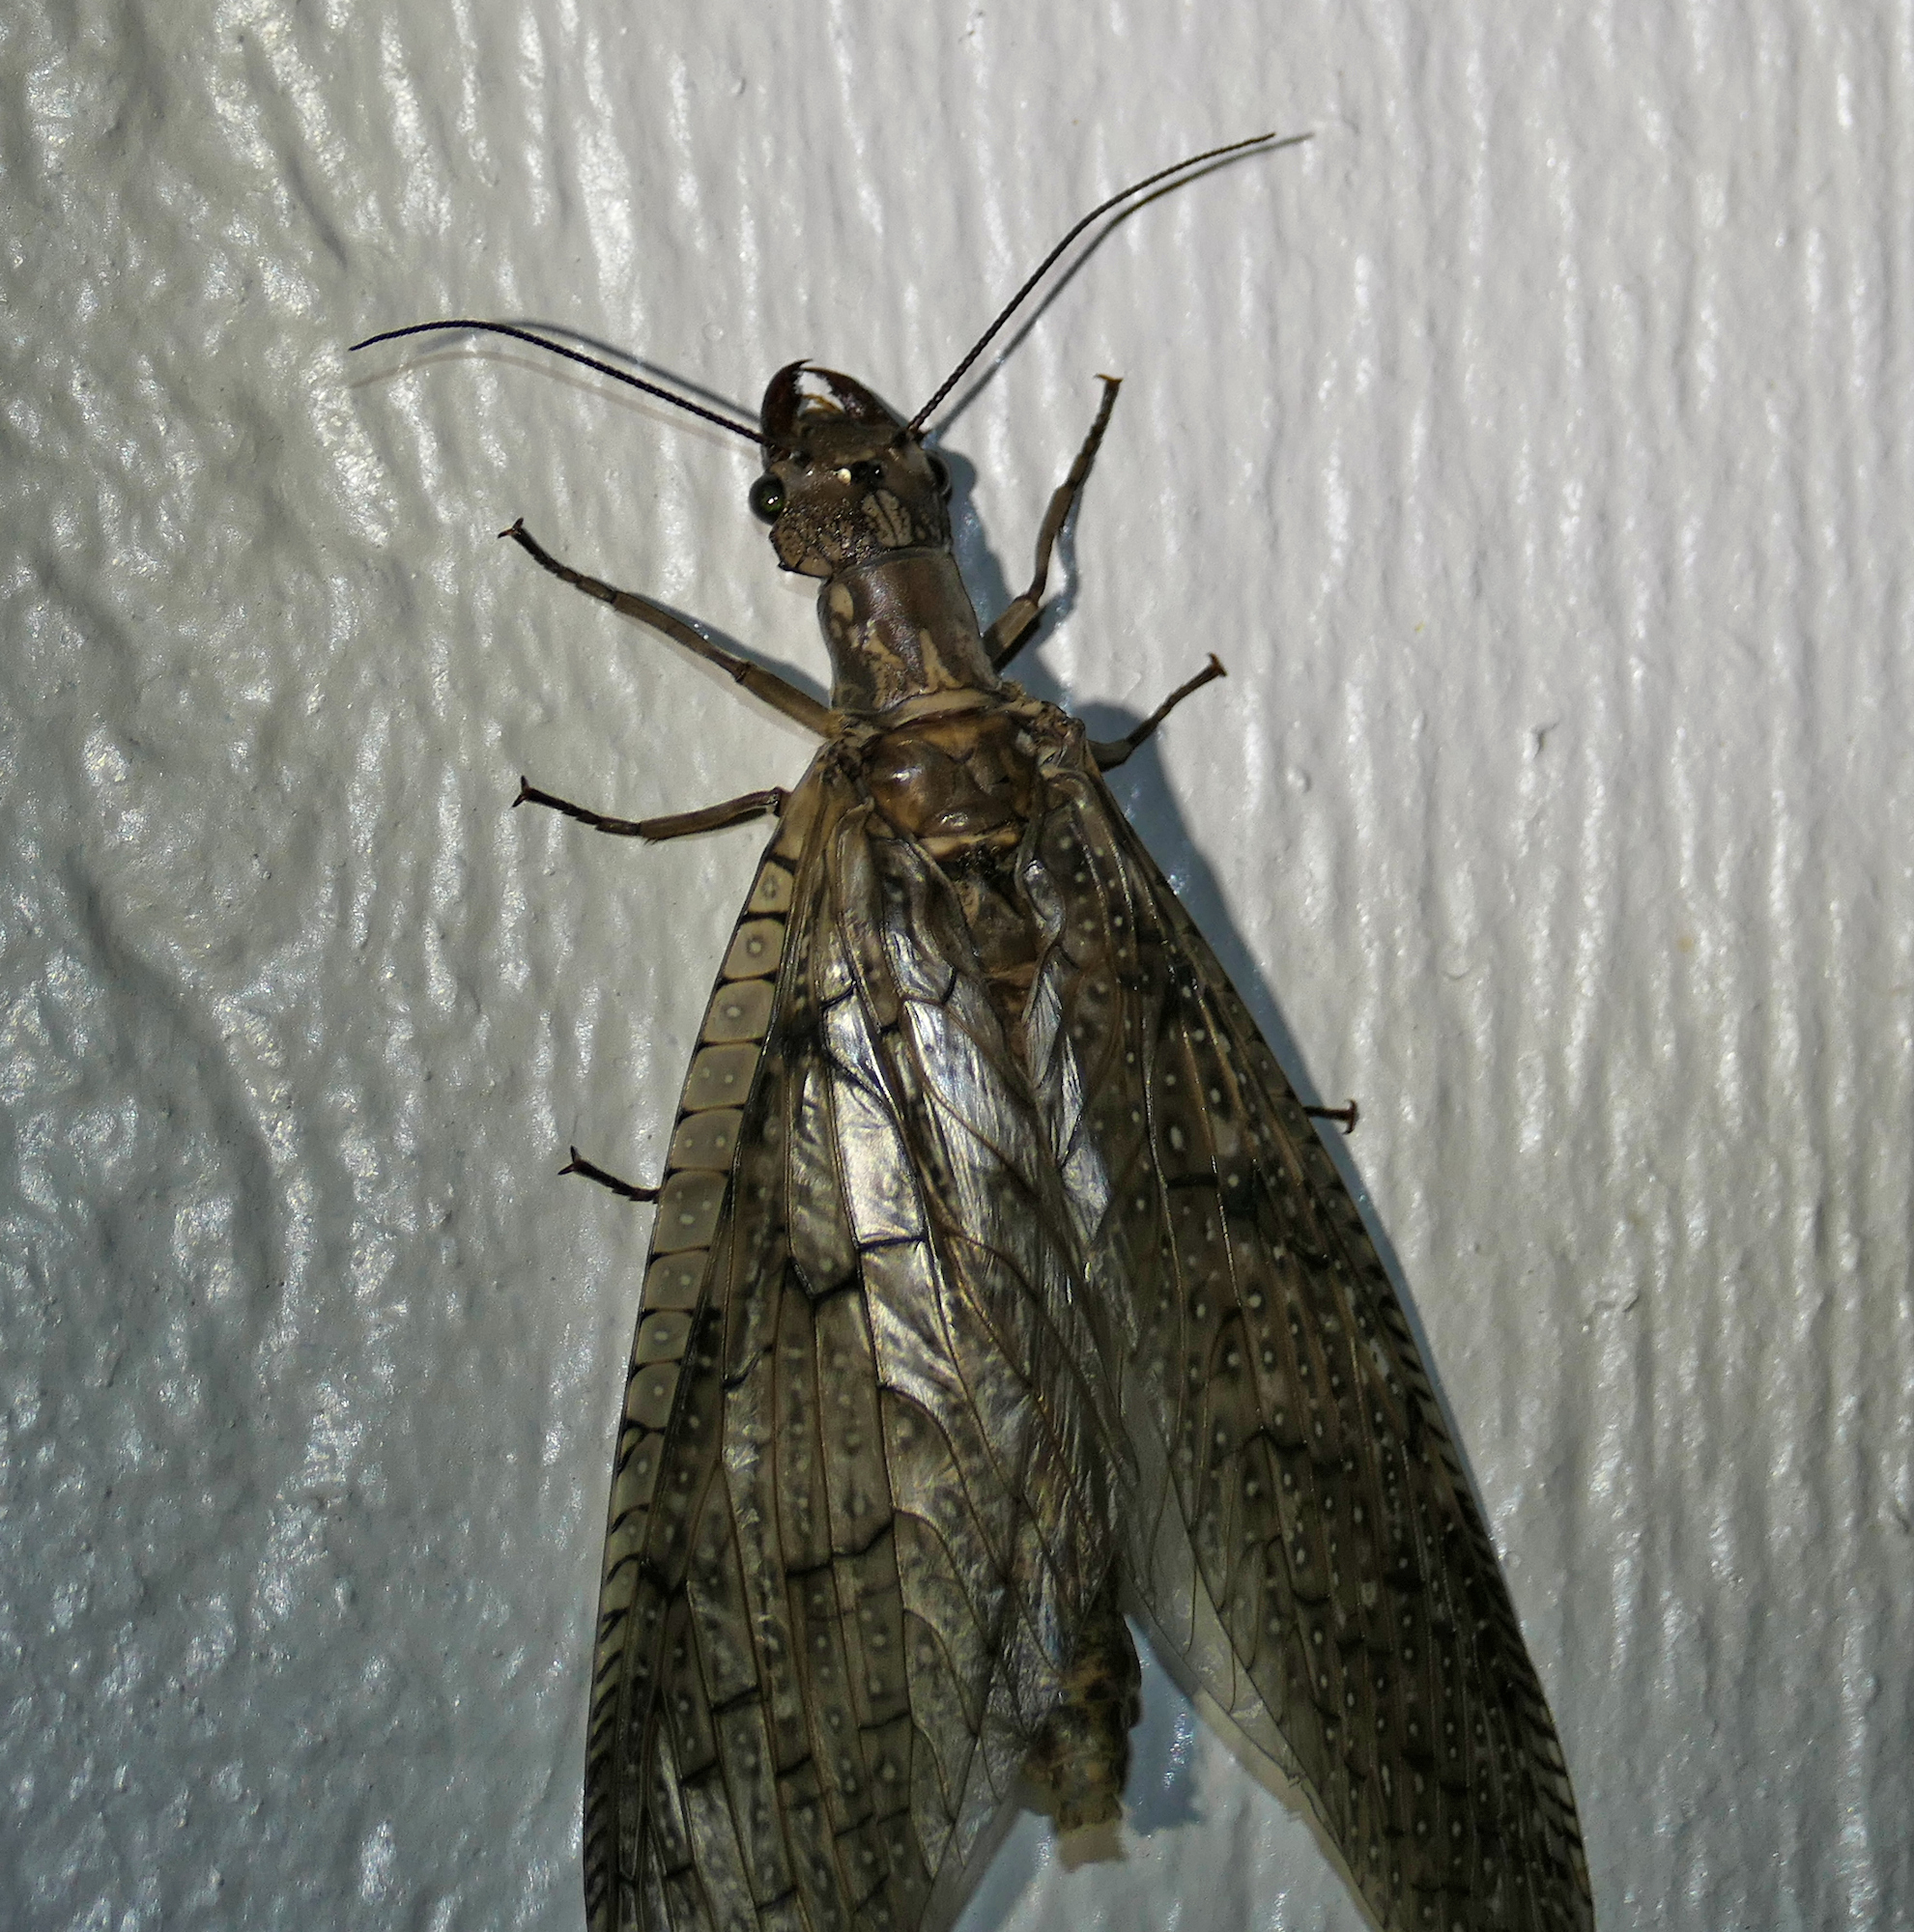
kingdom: Animalia
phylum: Arthropoda
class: Insecta
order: Megaloptera
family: Corydalidae
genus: Corydalus
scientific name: Corydalus texanus
